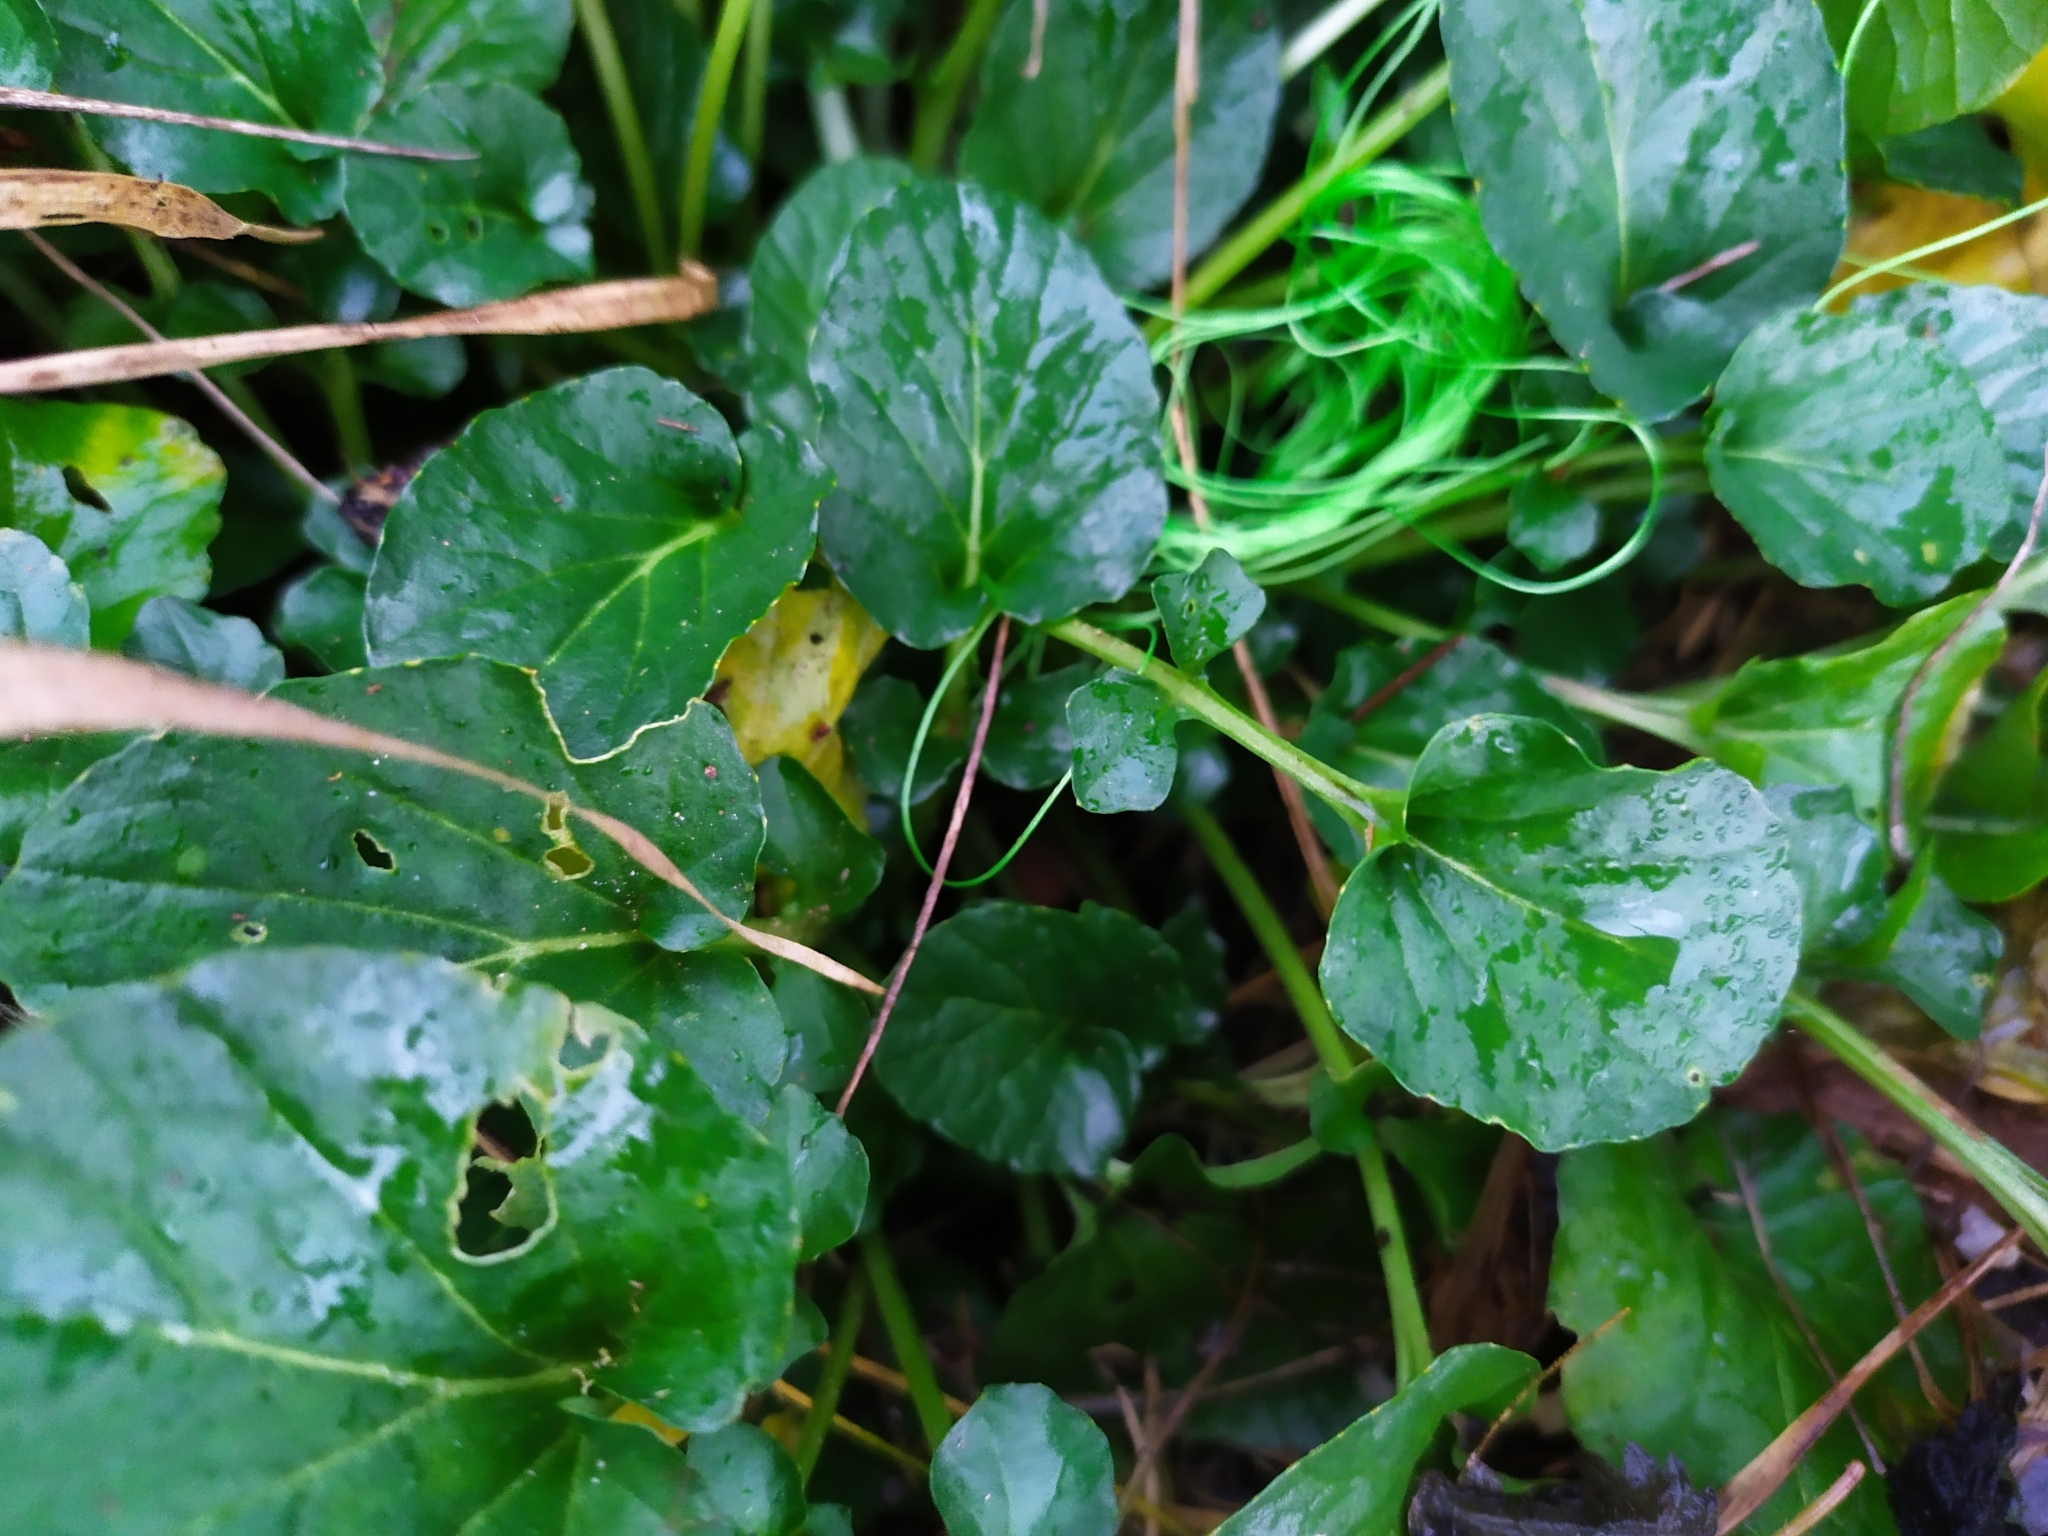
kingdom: Plantae
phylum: Tracheophyta
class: Magnoliopsida
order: Brassicales
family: Brassicaceae
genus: Barbarea
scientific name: Barbarea vulgaris
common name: Cressy-greens
